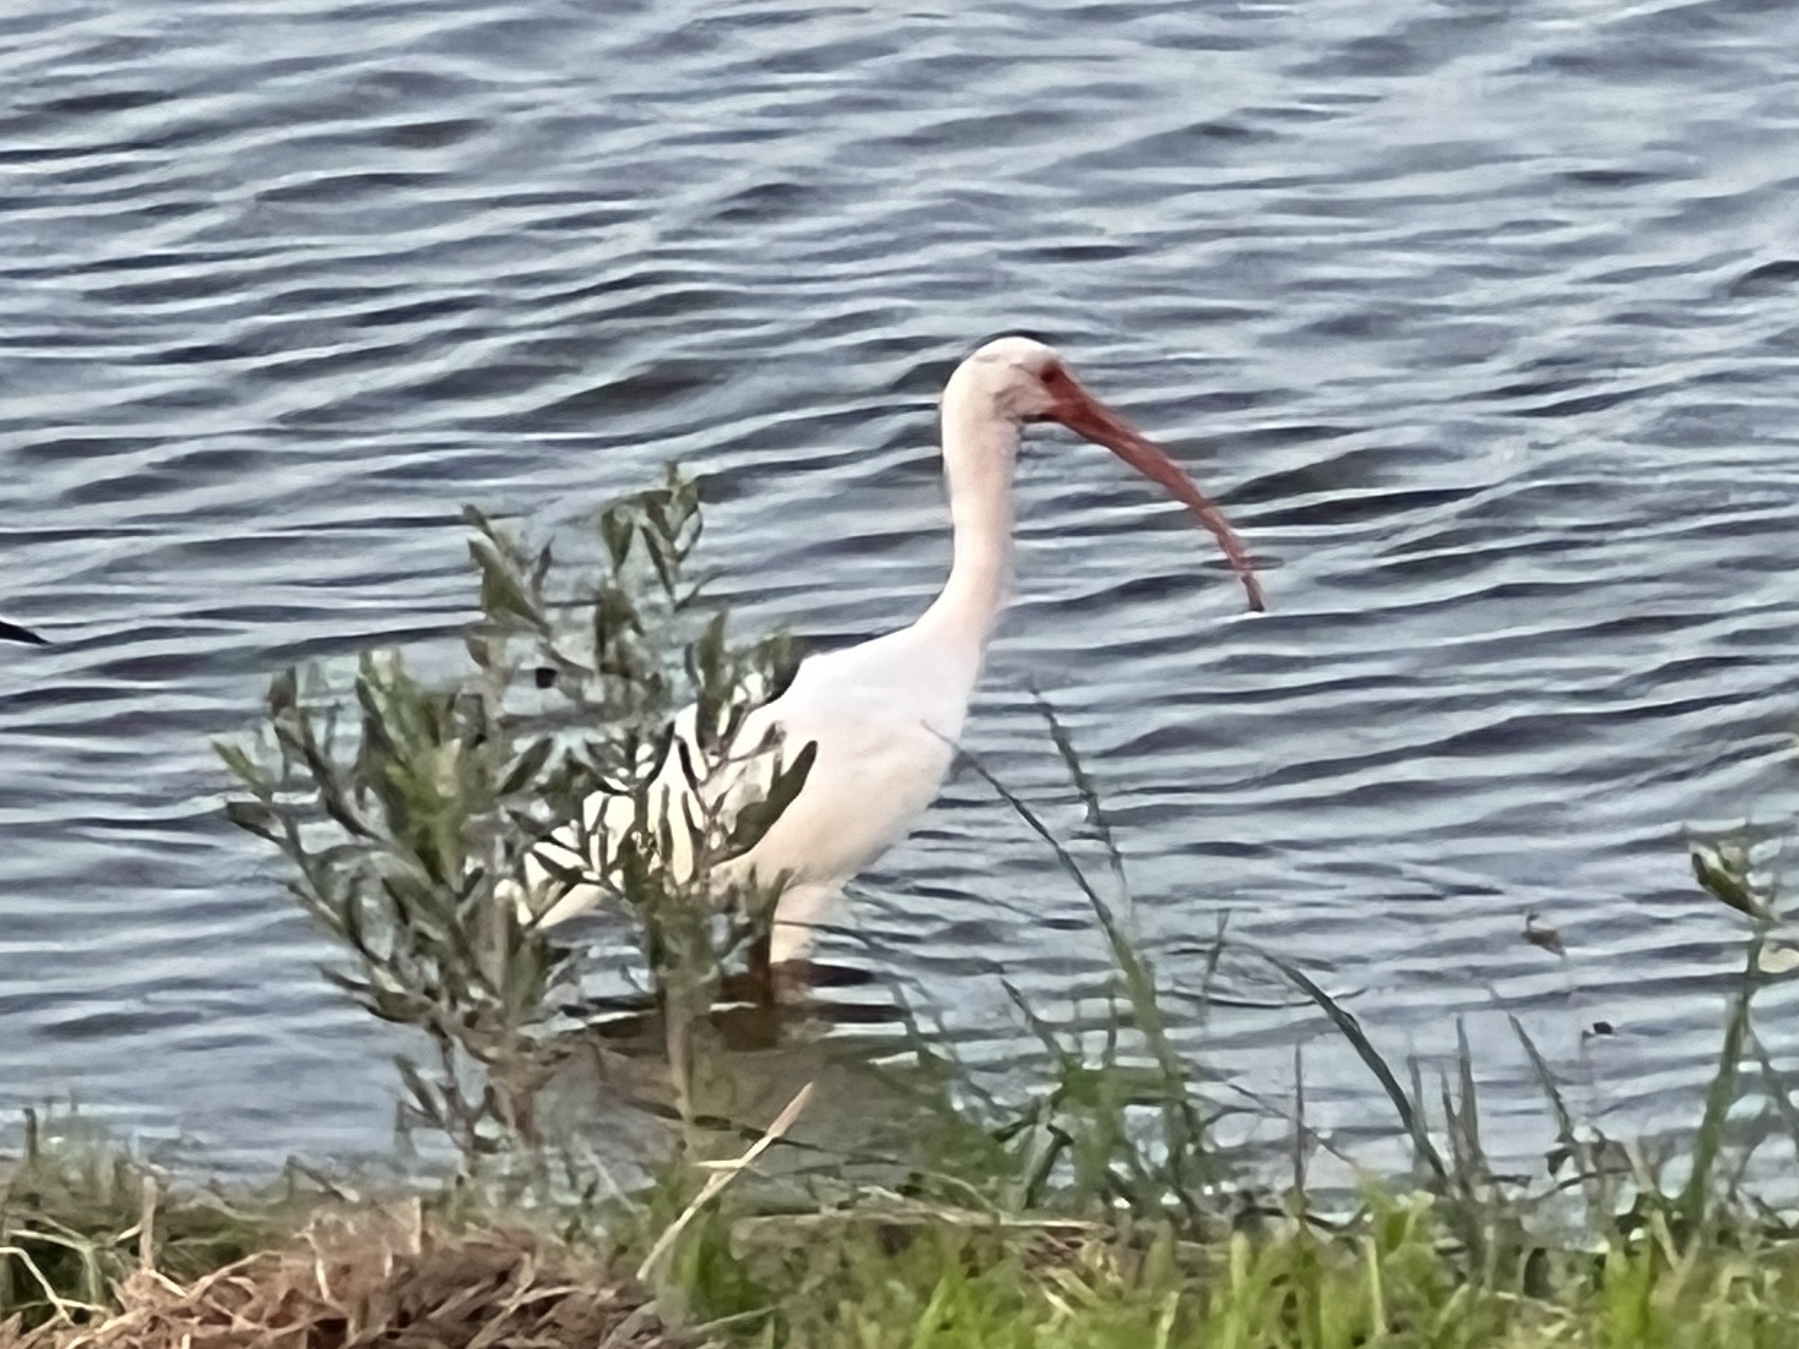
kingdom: Animalia
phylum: Chordata
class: Aves
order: Pelecaniformes
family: Threskiornithidae
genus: Eudocimus
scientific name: Eudocimus albus
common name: White ibis
